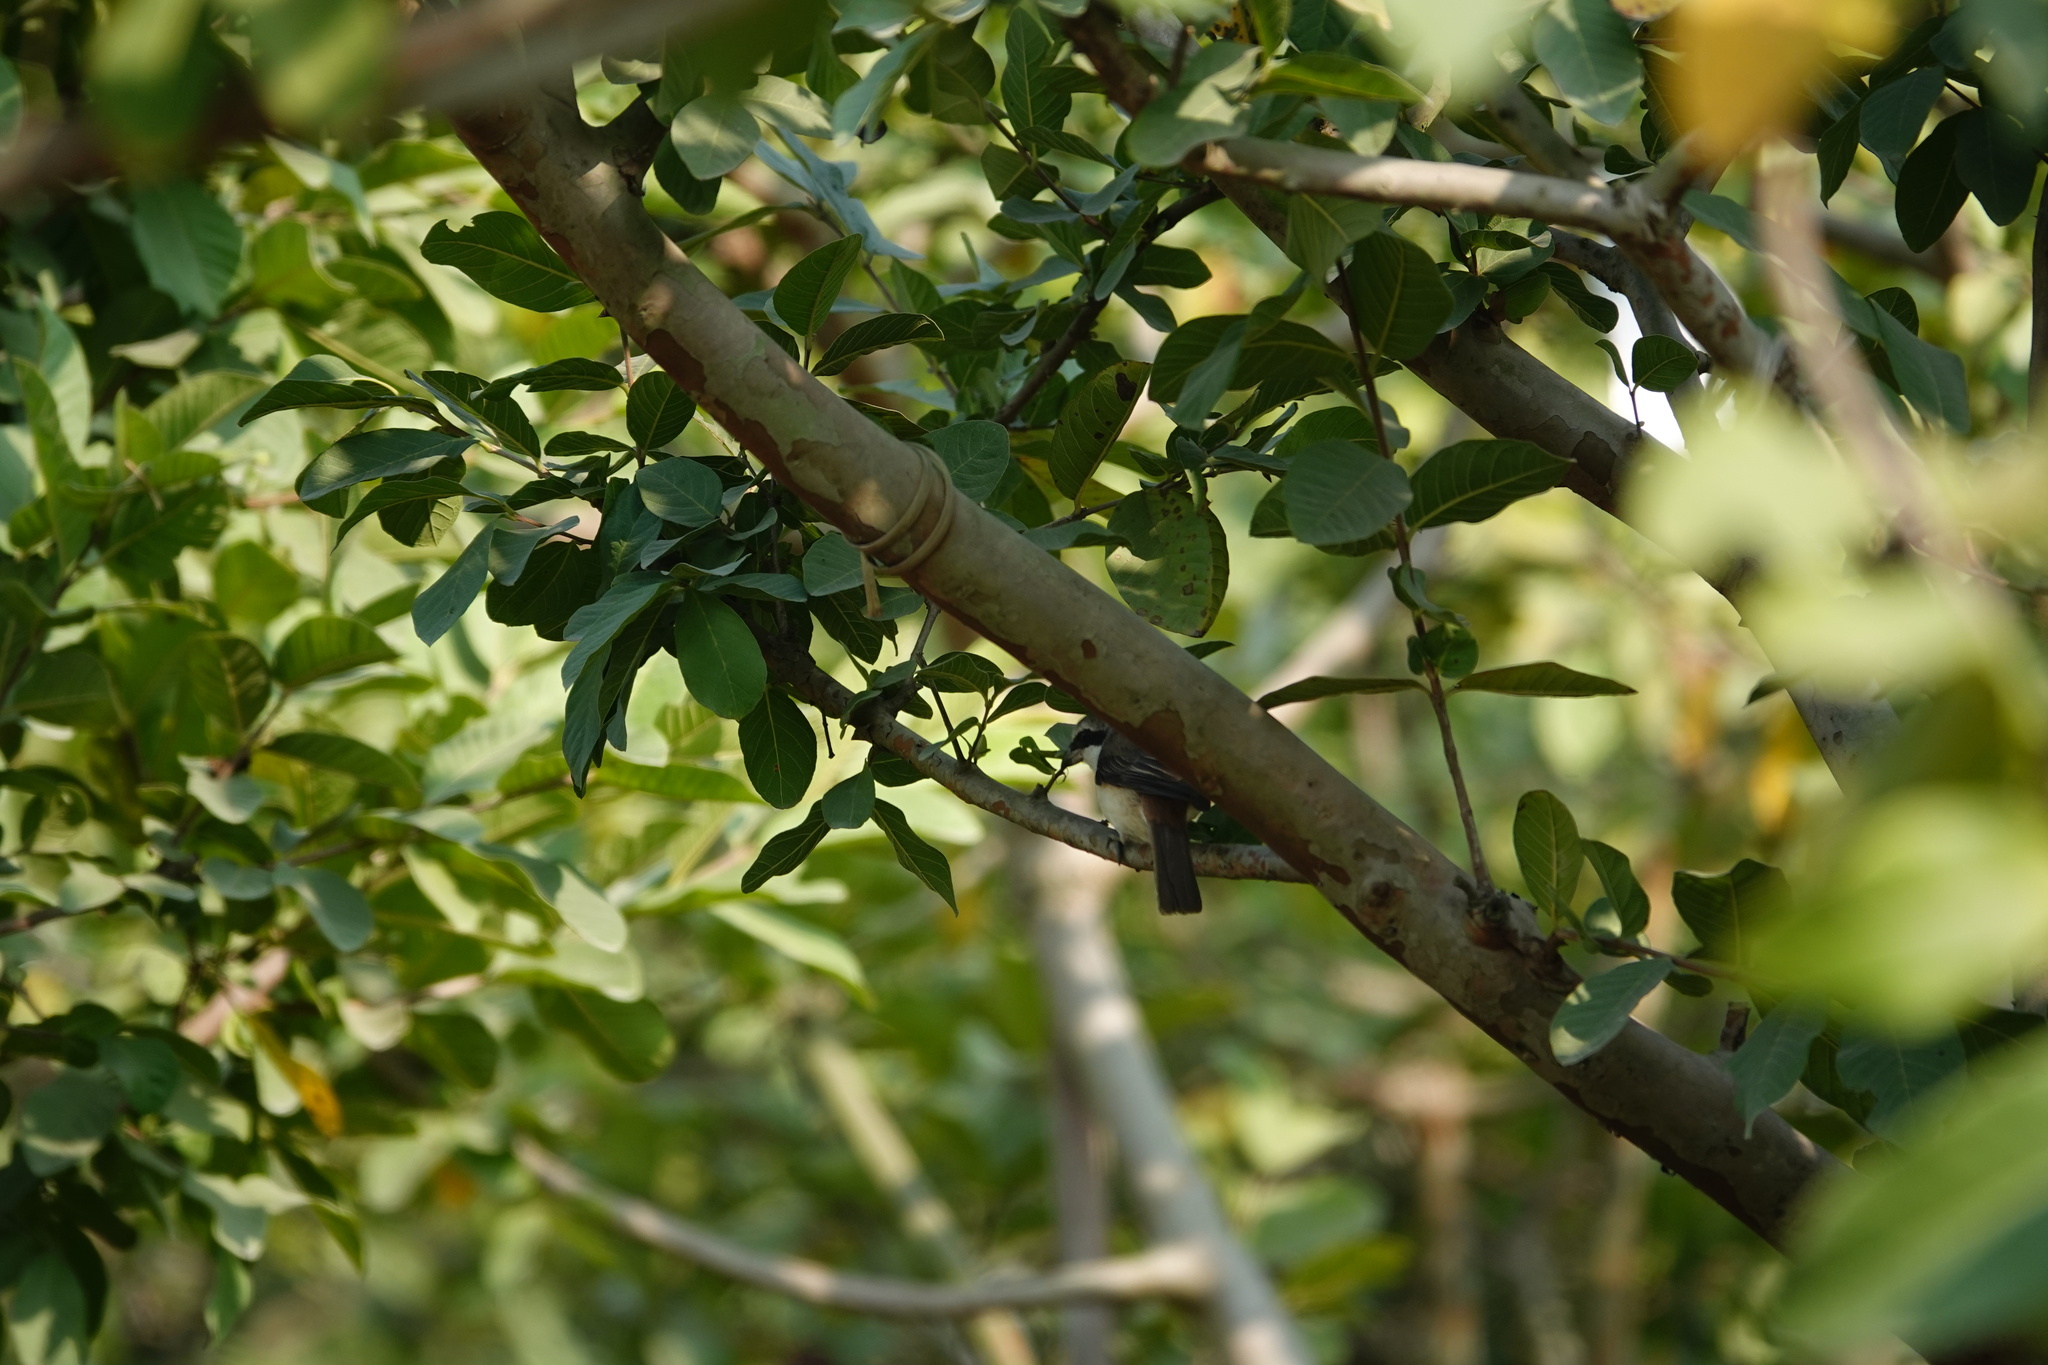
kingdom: Animalia
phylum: Chordata
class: Aves
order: Passeriformes
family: Laniidae
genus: Lanius
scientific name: Lanius cristatus
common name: Brown shrike
